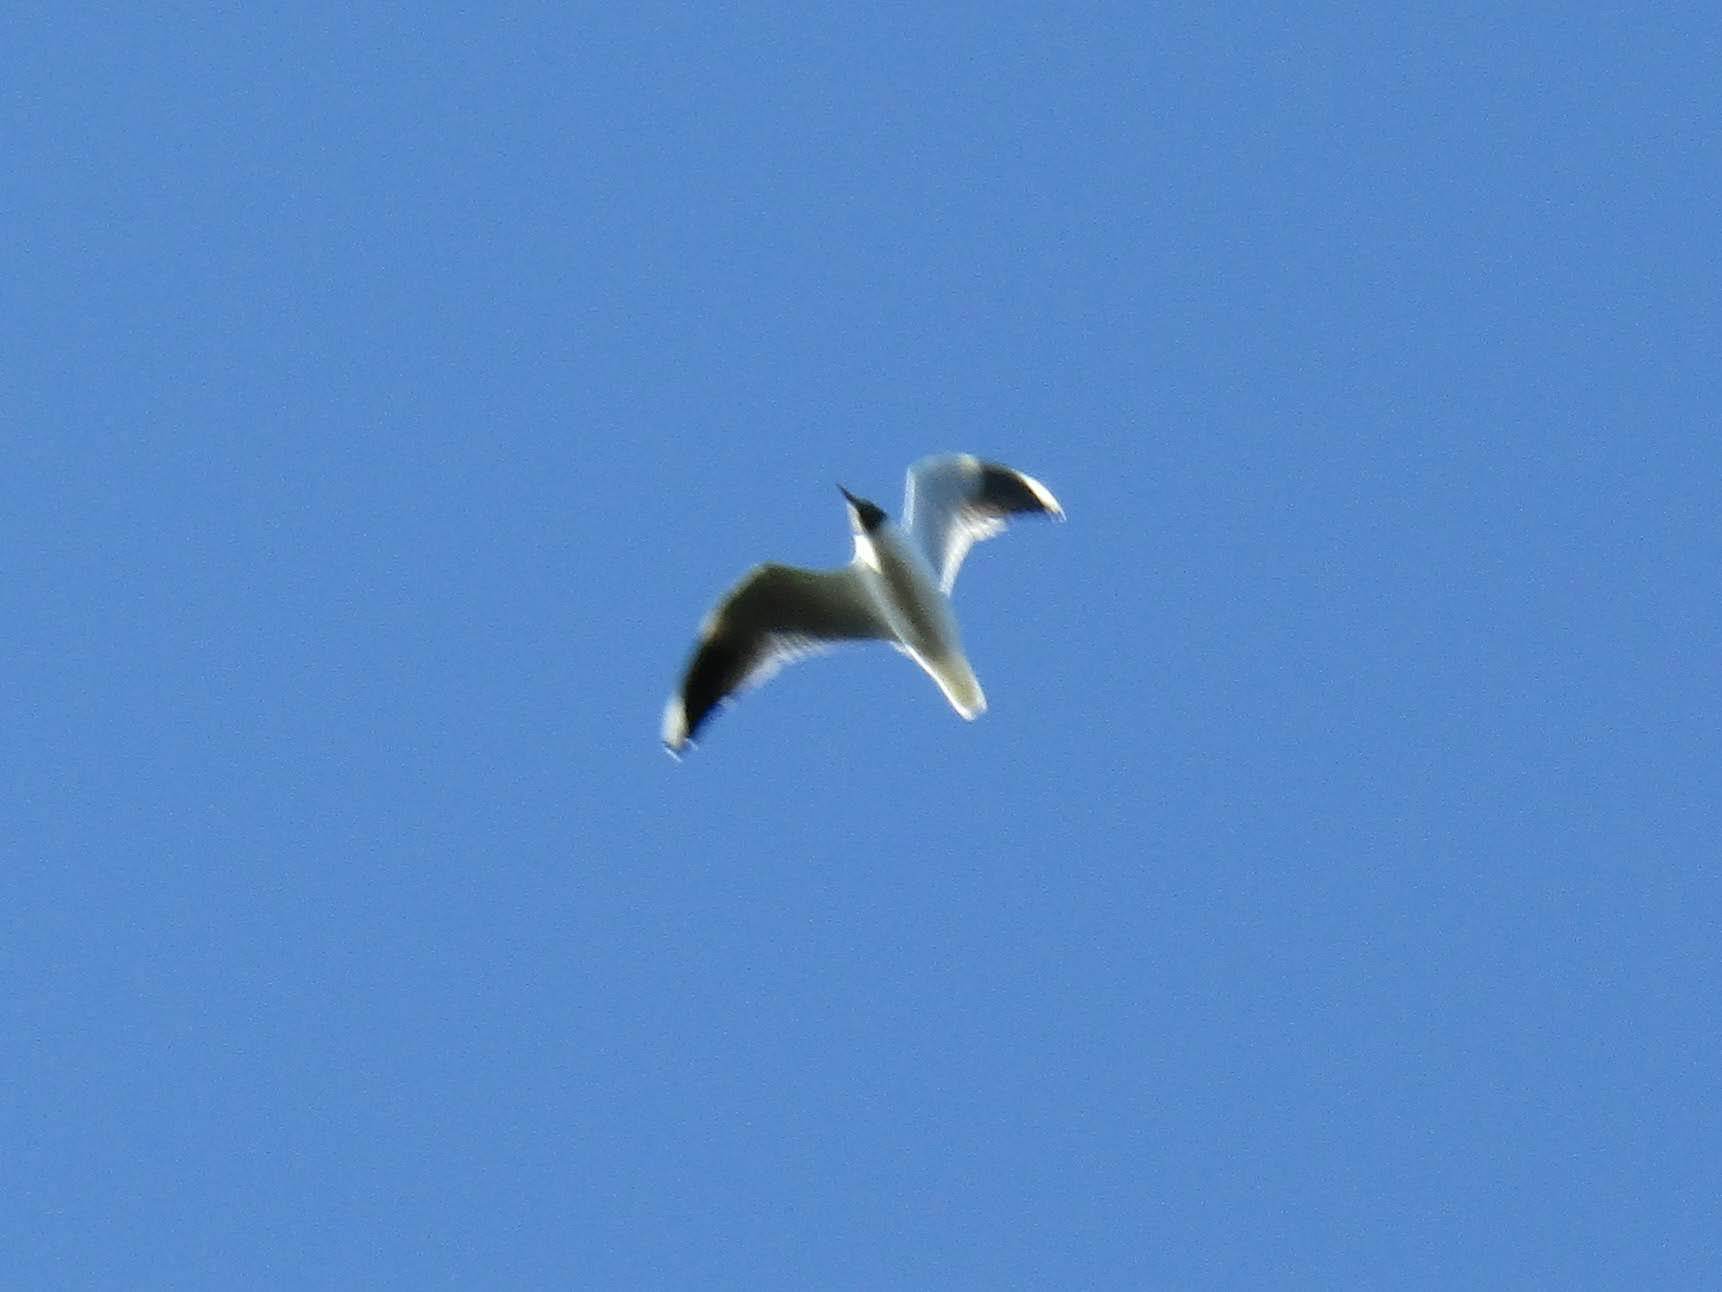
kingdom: Animalia
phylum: Chordata
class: Aves
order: Charadriiformes
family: Laridae
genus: Chroicocephalus
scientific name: Chroicocephalus maculipennis
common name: Brown-hooded gull
